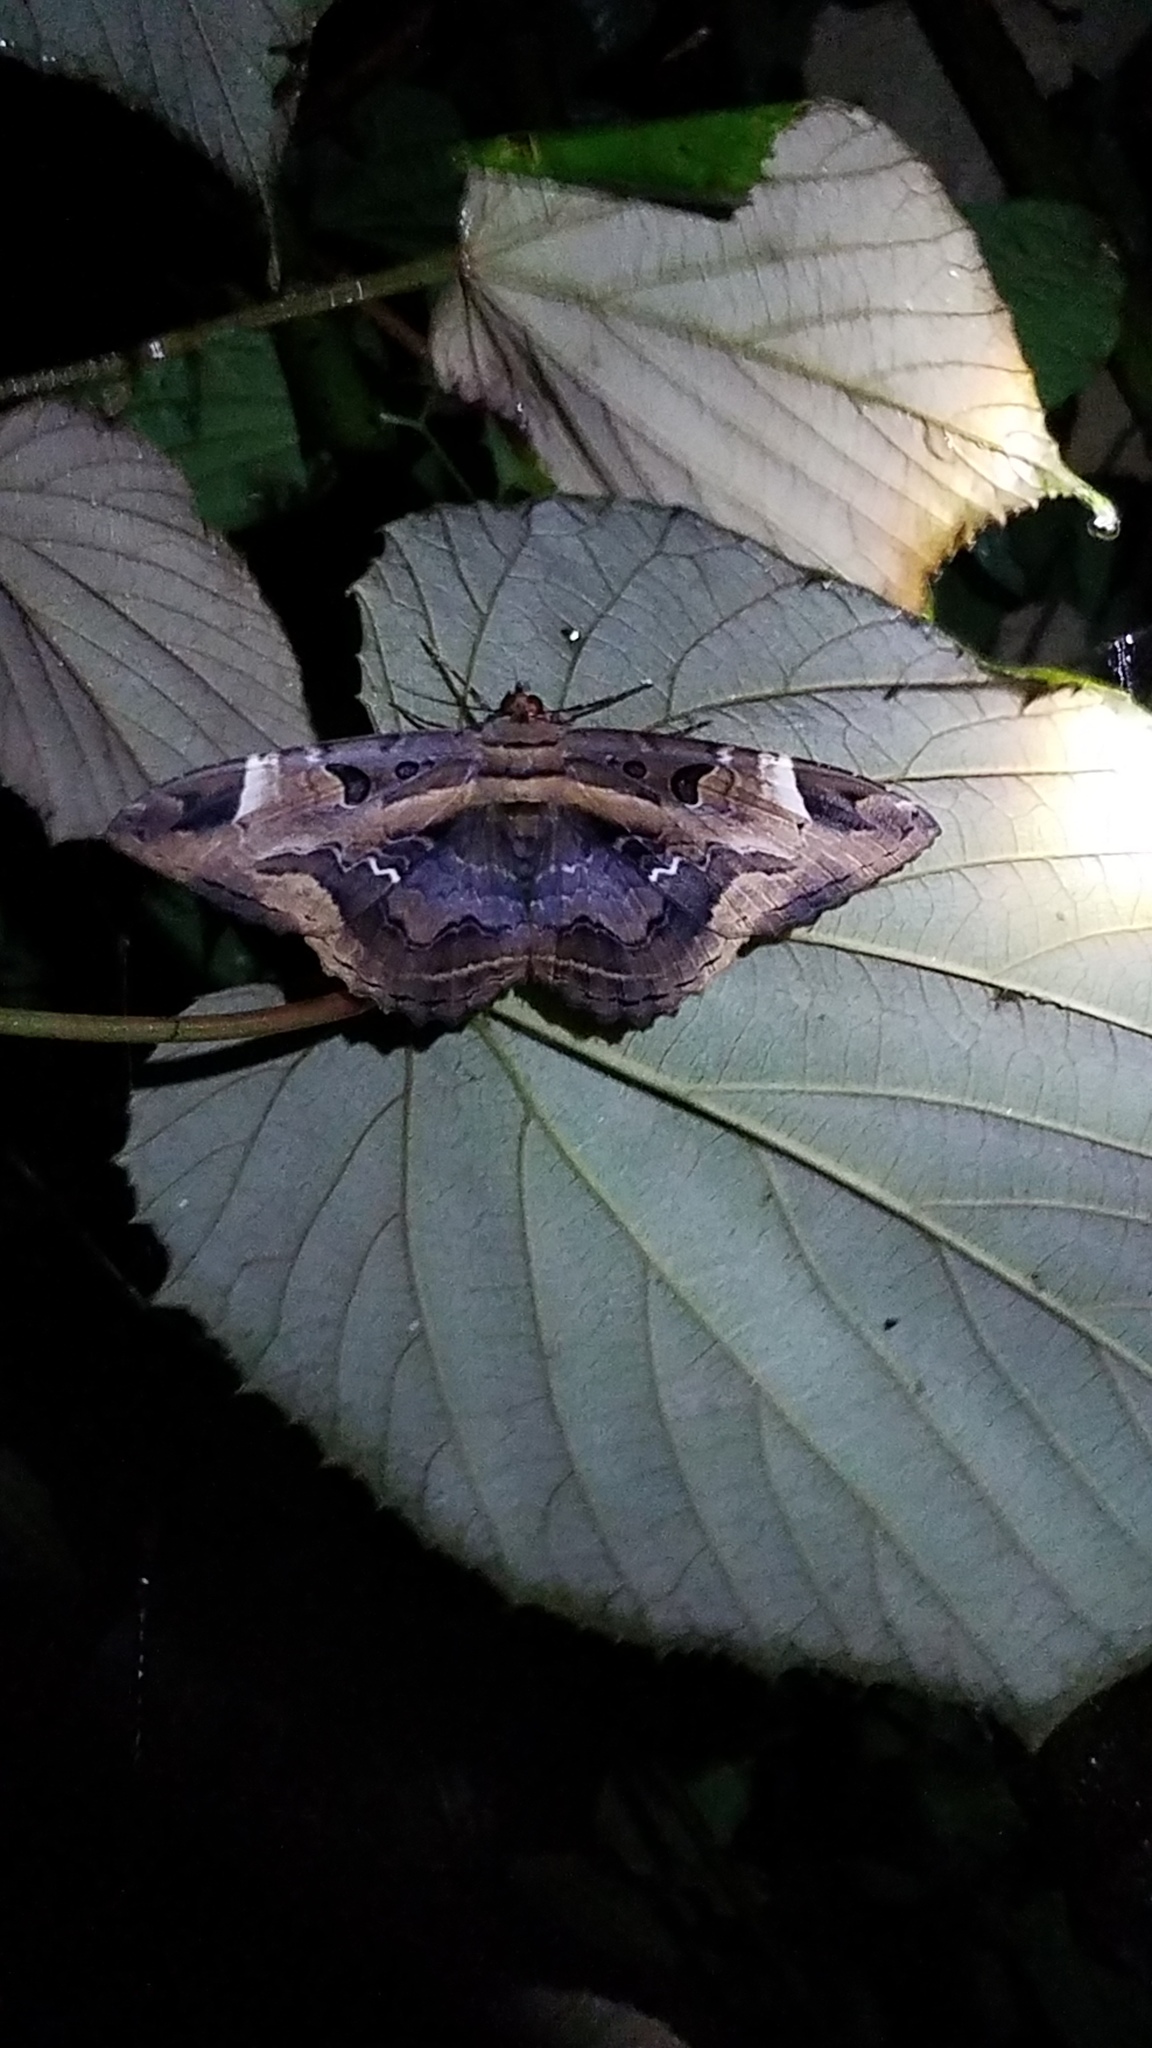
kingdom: Animalia
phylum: Arthropoda
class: Insecta
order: Lepidoptera
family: Erebidae
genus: Feigeria
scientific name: Feigeria herilia
